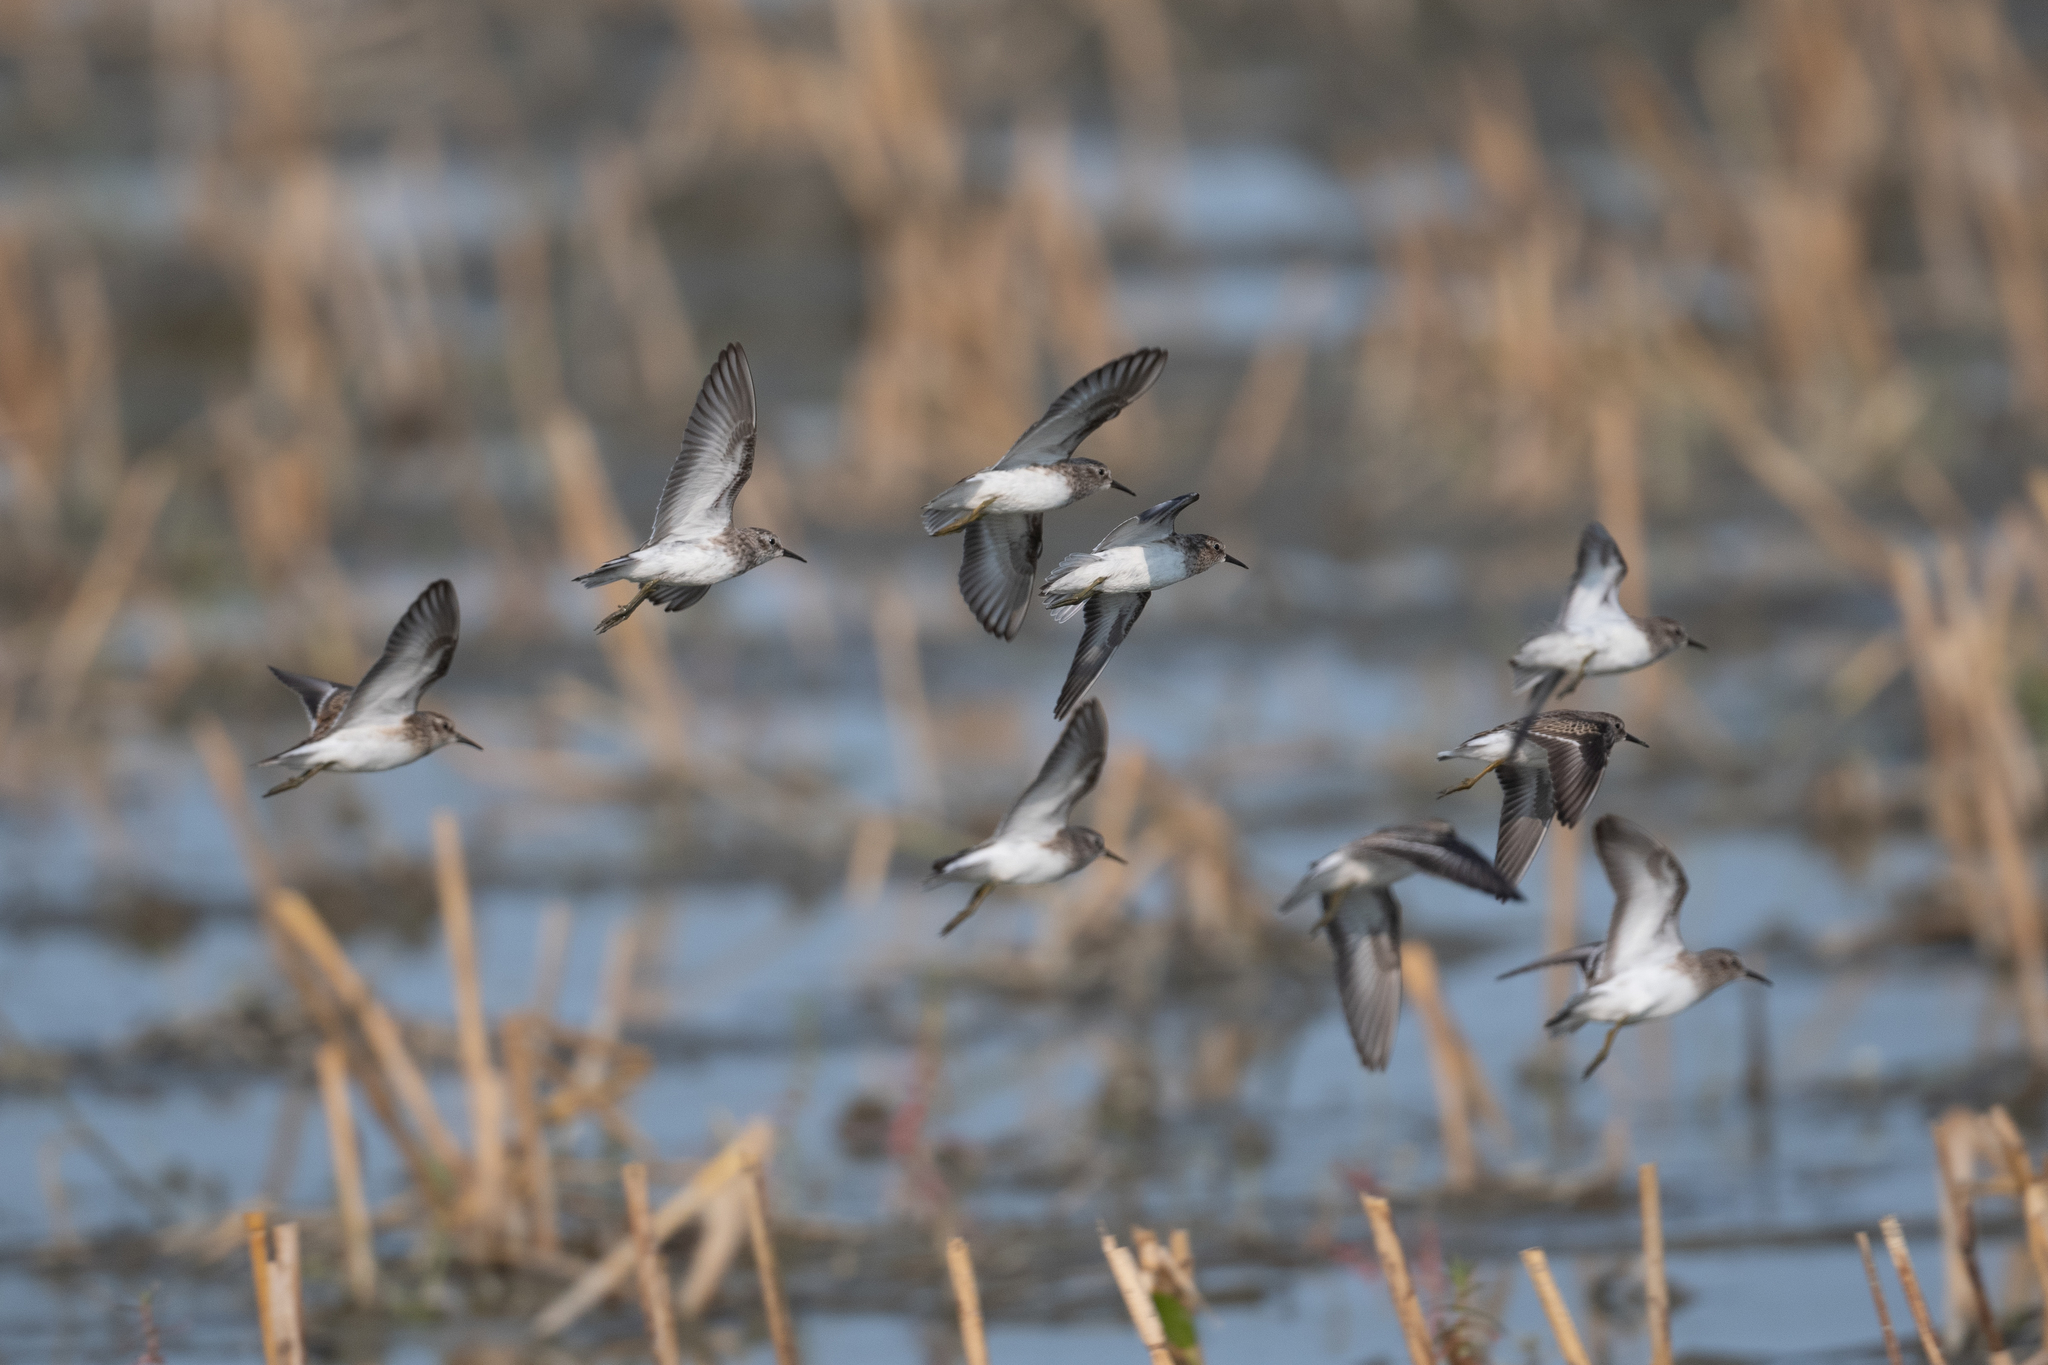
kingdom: Animalia
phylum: Chordata
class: Aves
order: Charadriiformes
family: Scolopacidae
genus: Calidris
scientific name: Calidris minutilla
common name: Least sandpiper
